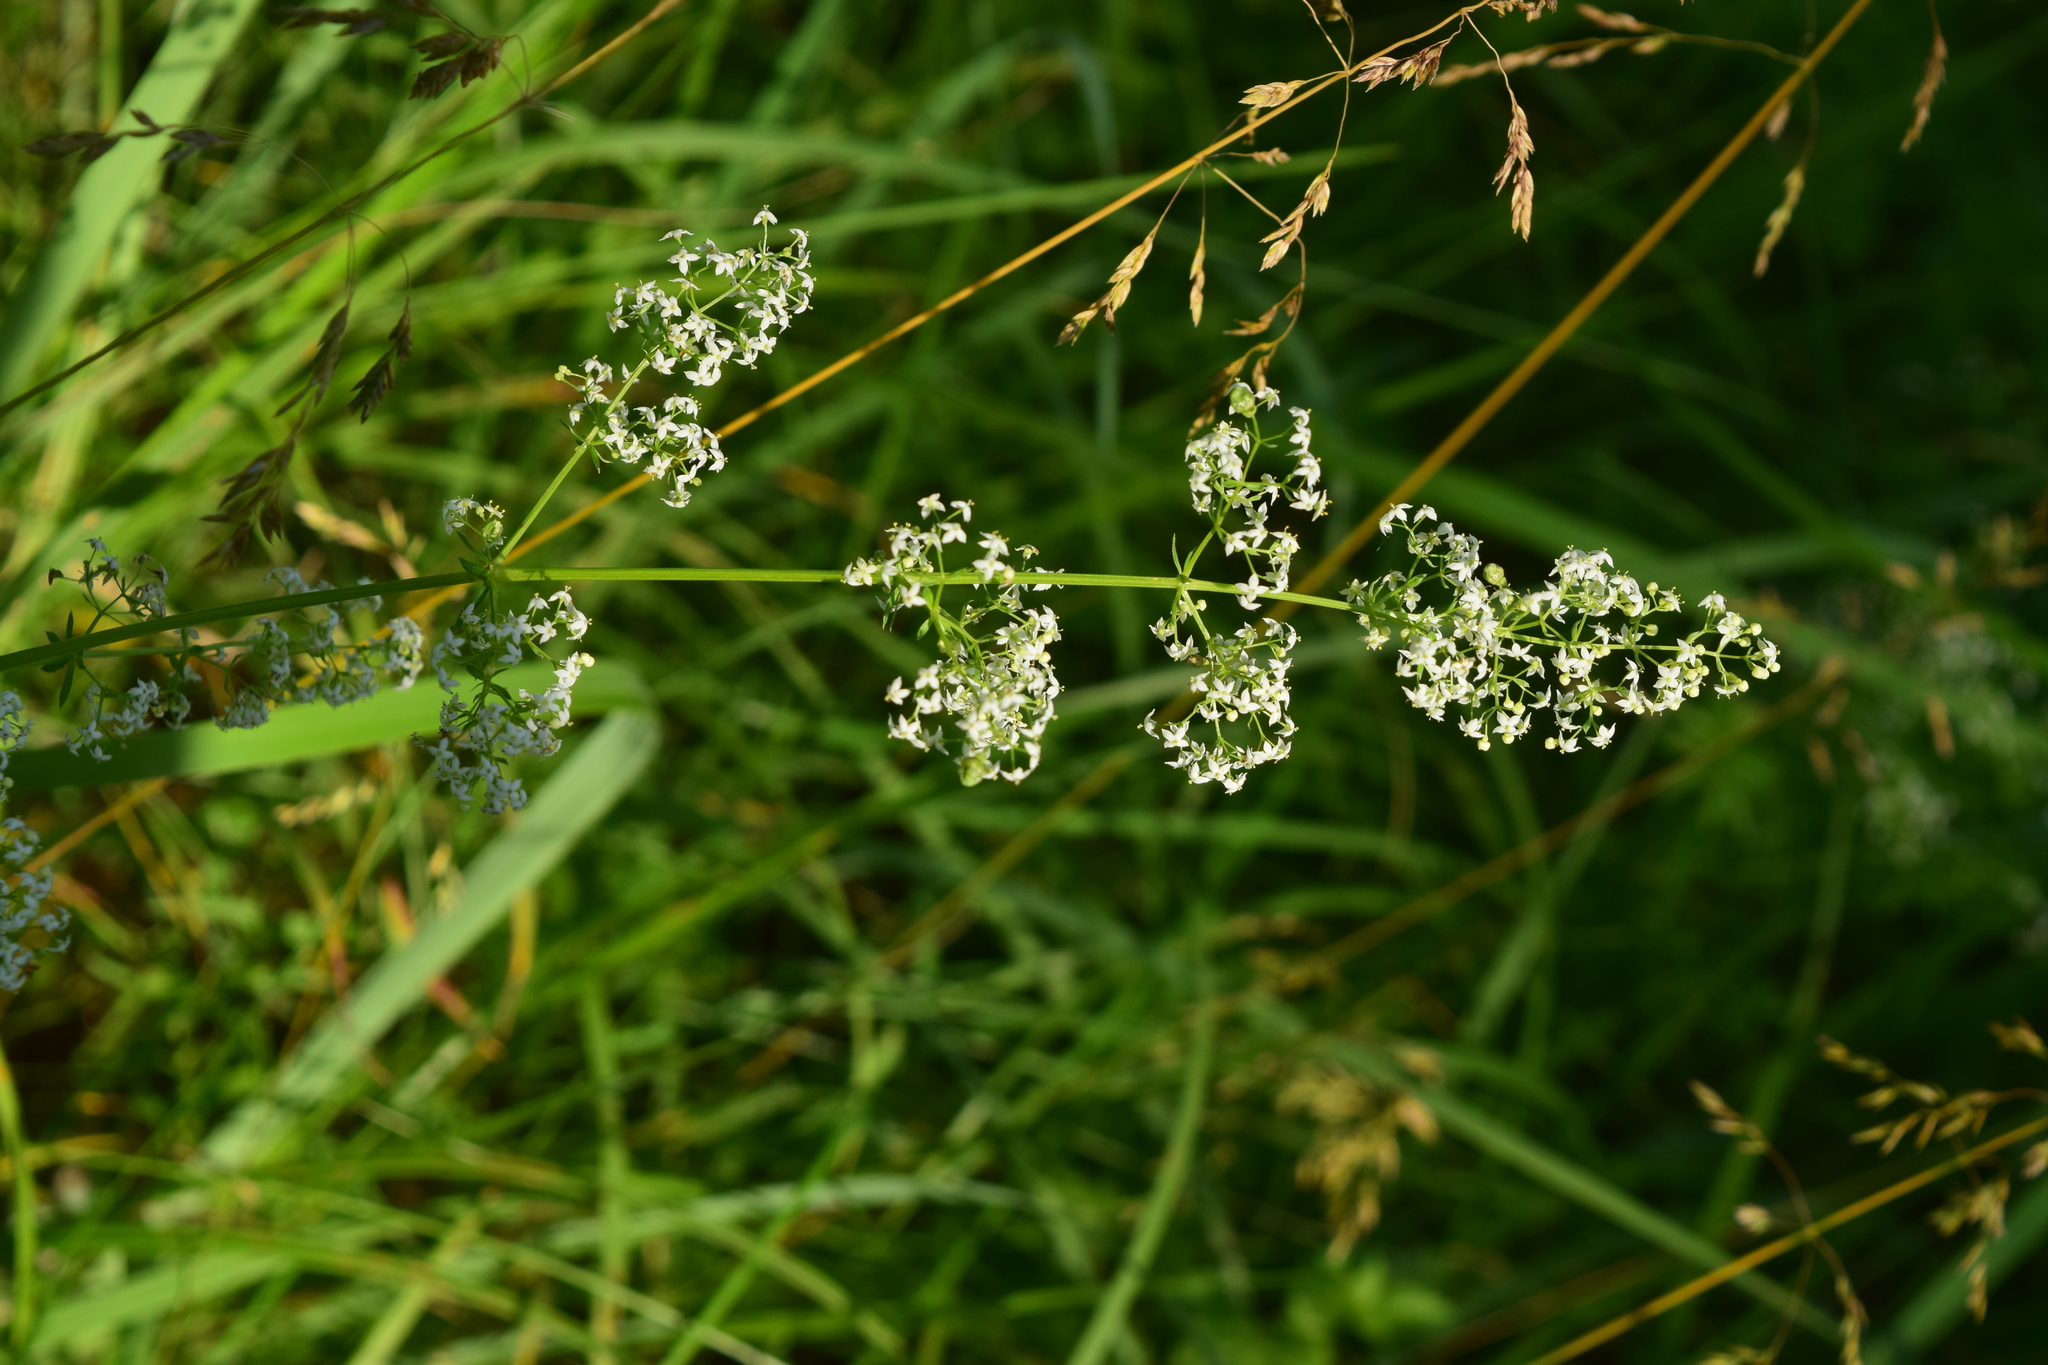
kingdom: Plantae
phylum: Tracheophyta
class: Magnoliopsida
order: Gentianales
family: Rubiaceae
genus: Galium
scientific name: Galium mollugo
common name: Hedge bedstraw
